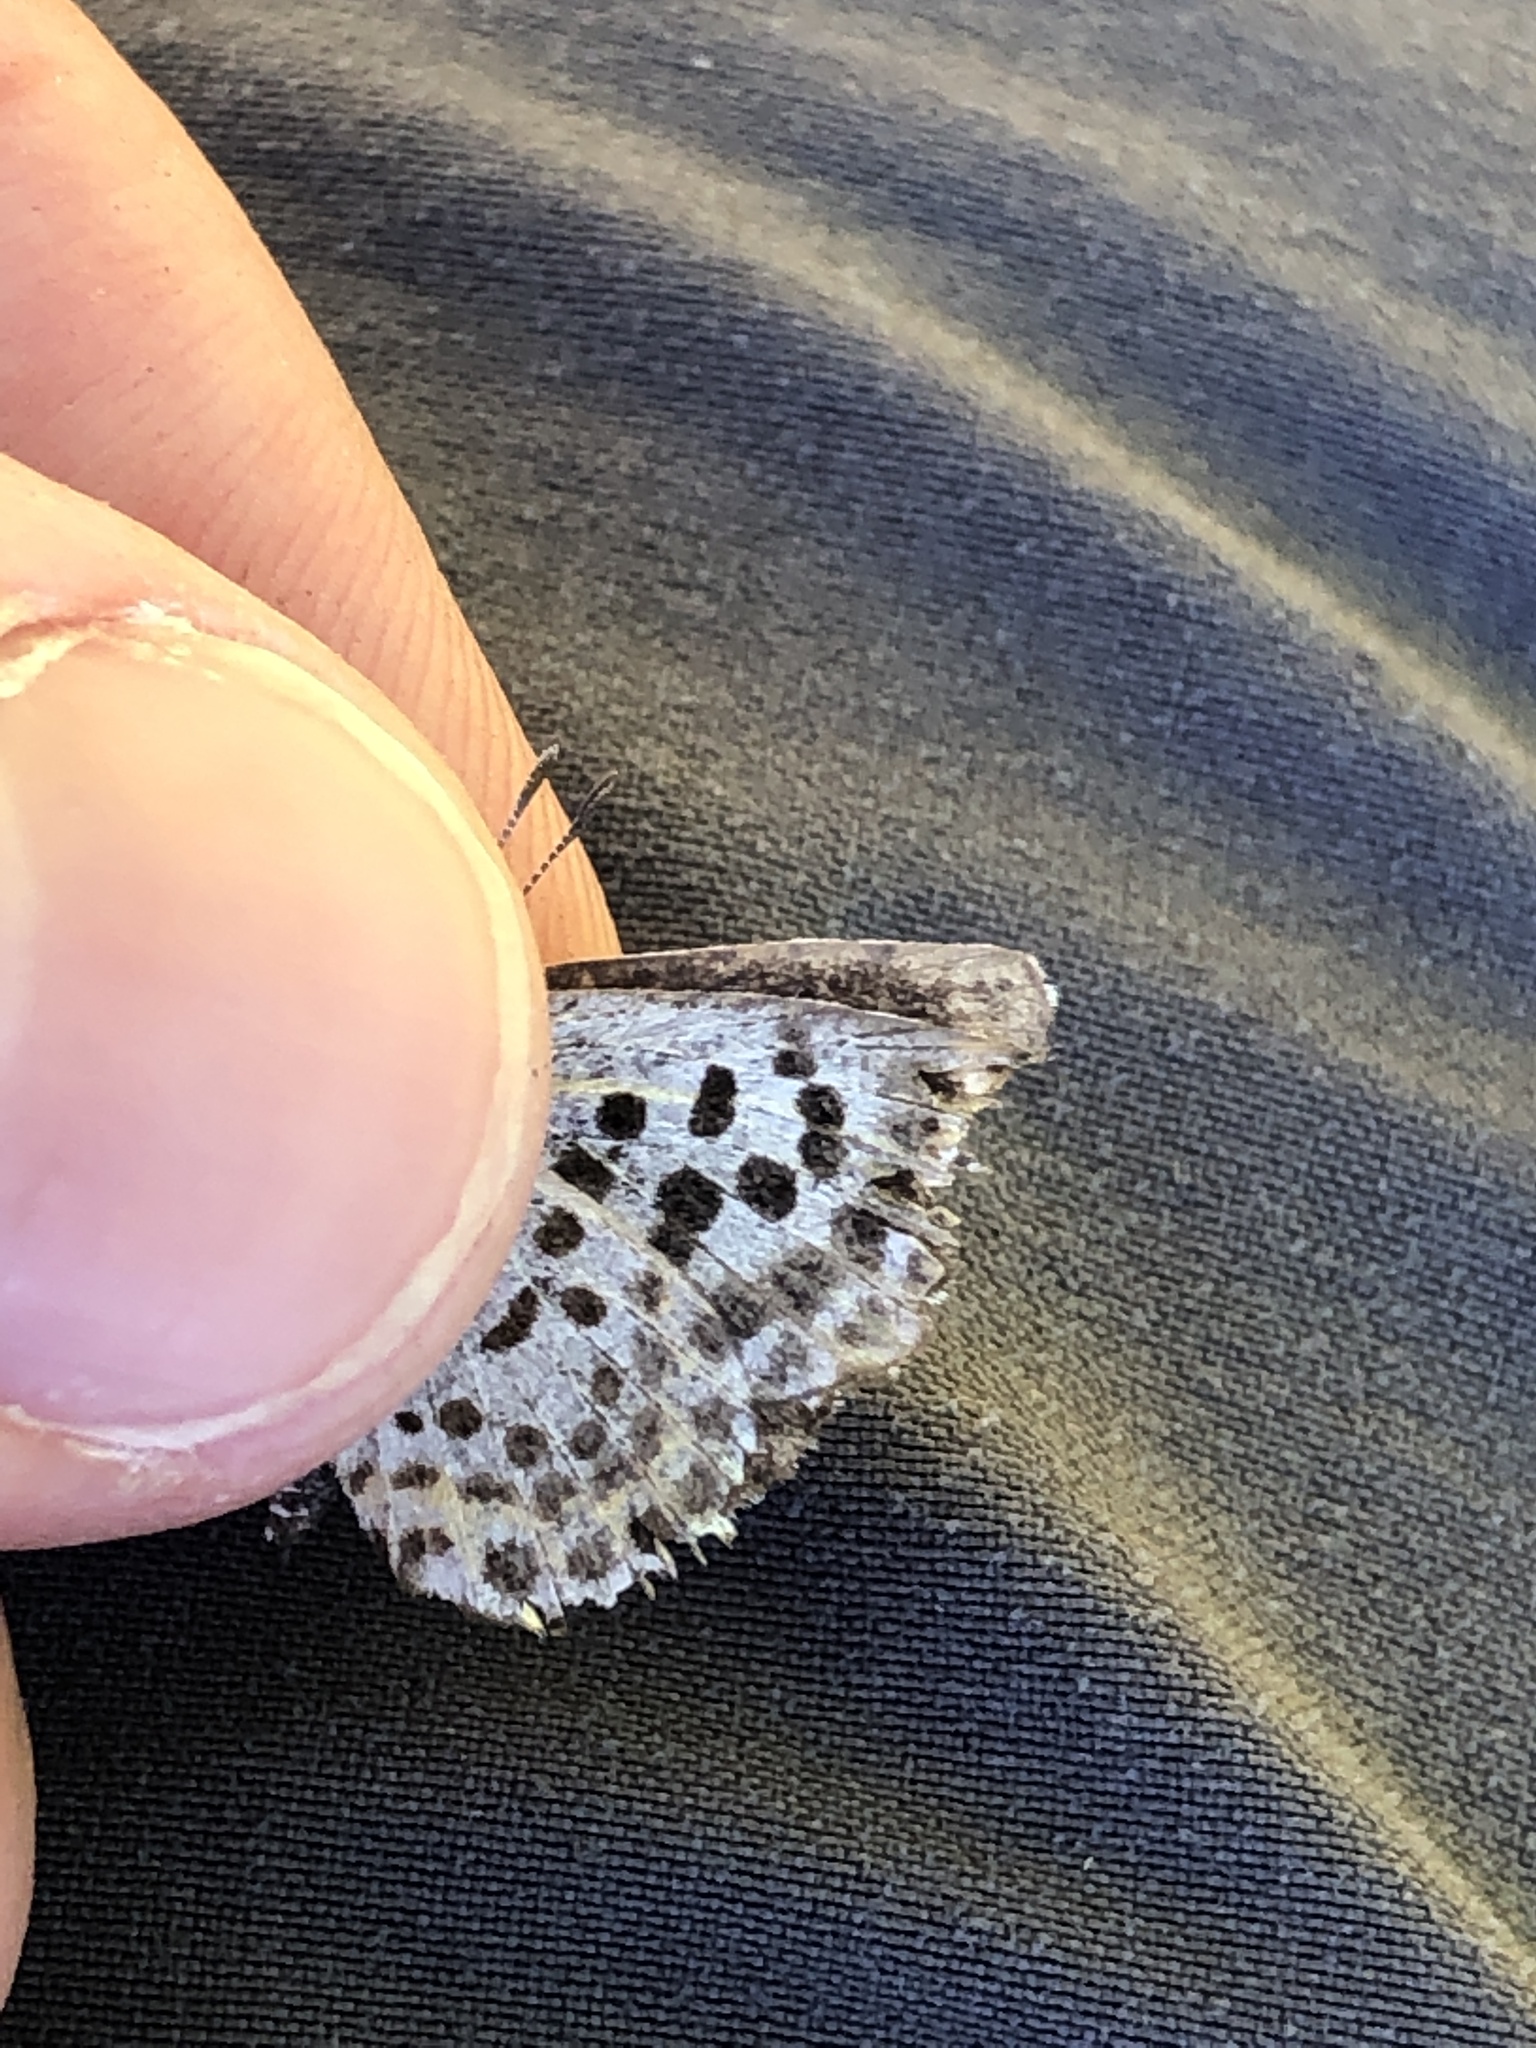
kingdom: Animalia
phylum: Arthropoda
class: Insecta
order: Lepidoptera
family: Lycaenidae
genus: Scolitantides
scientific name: Scolitantides orion
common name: Chequered blue
